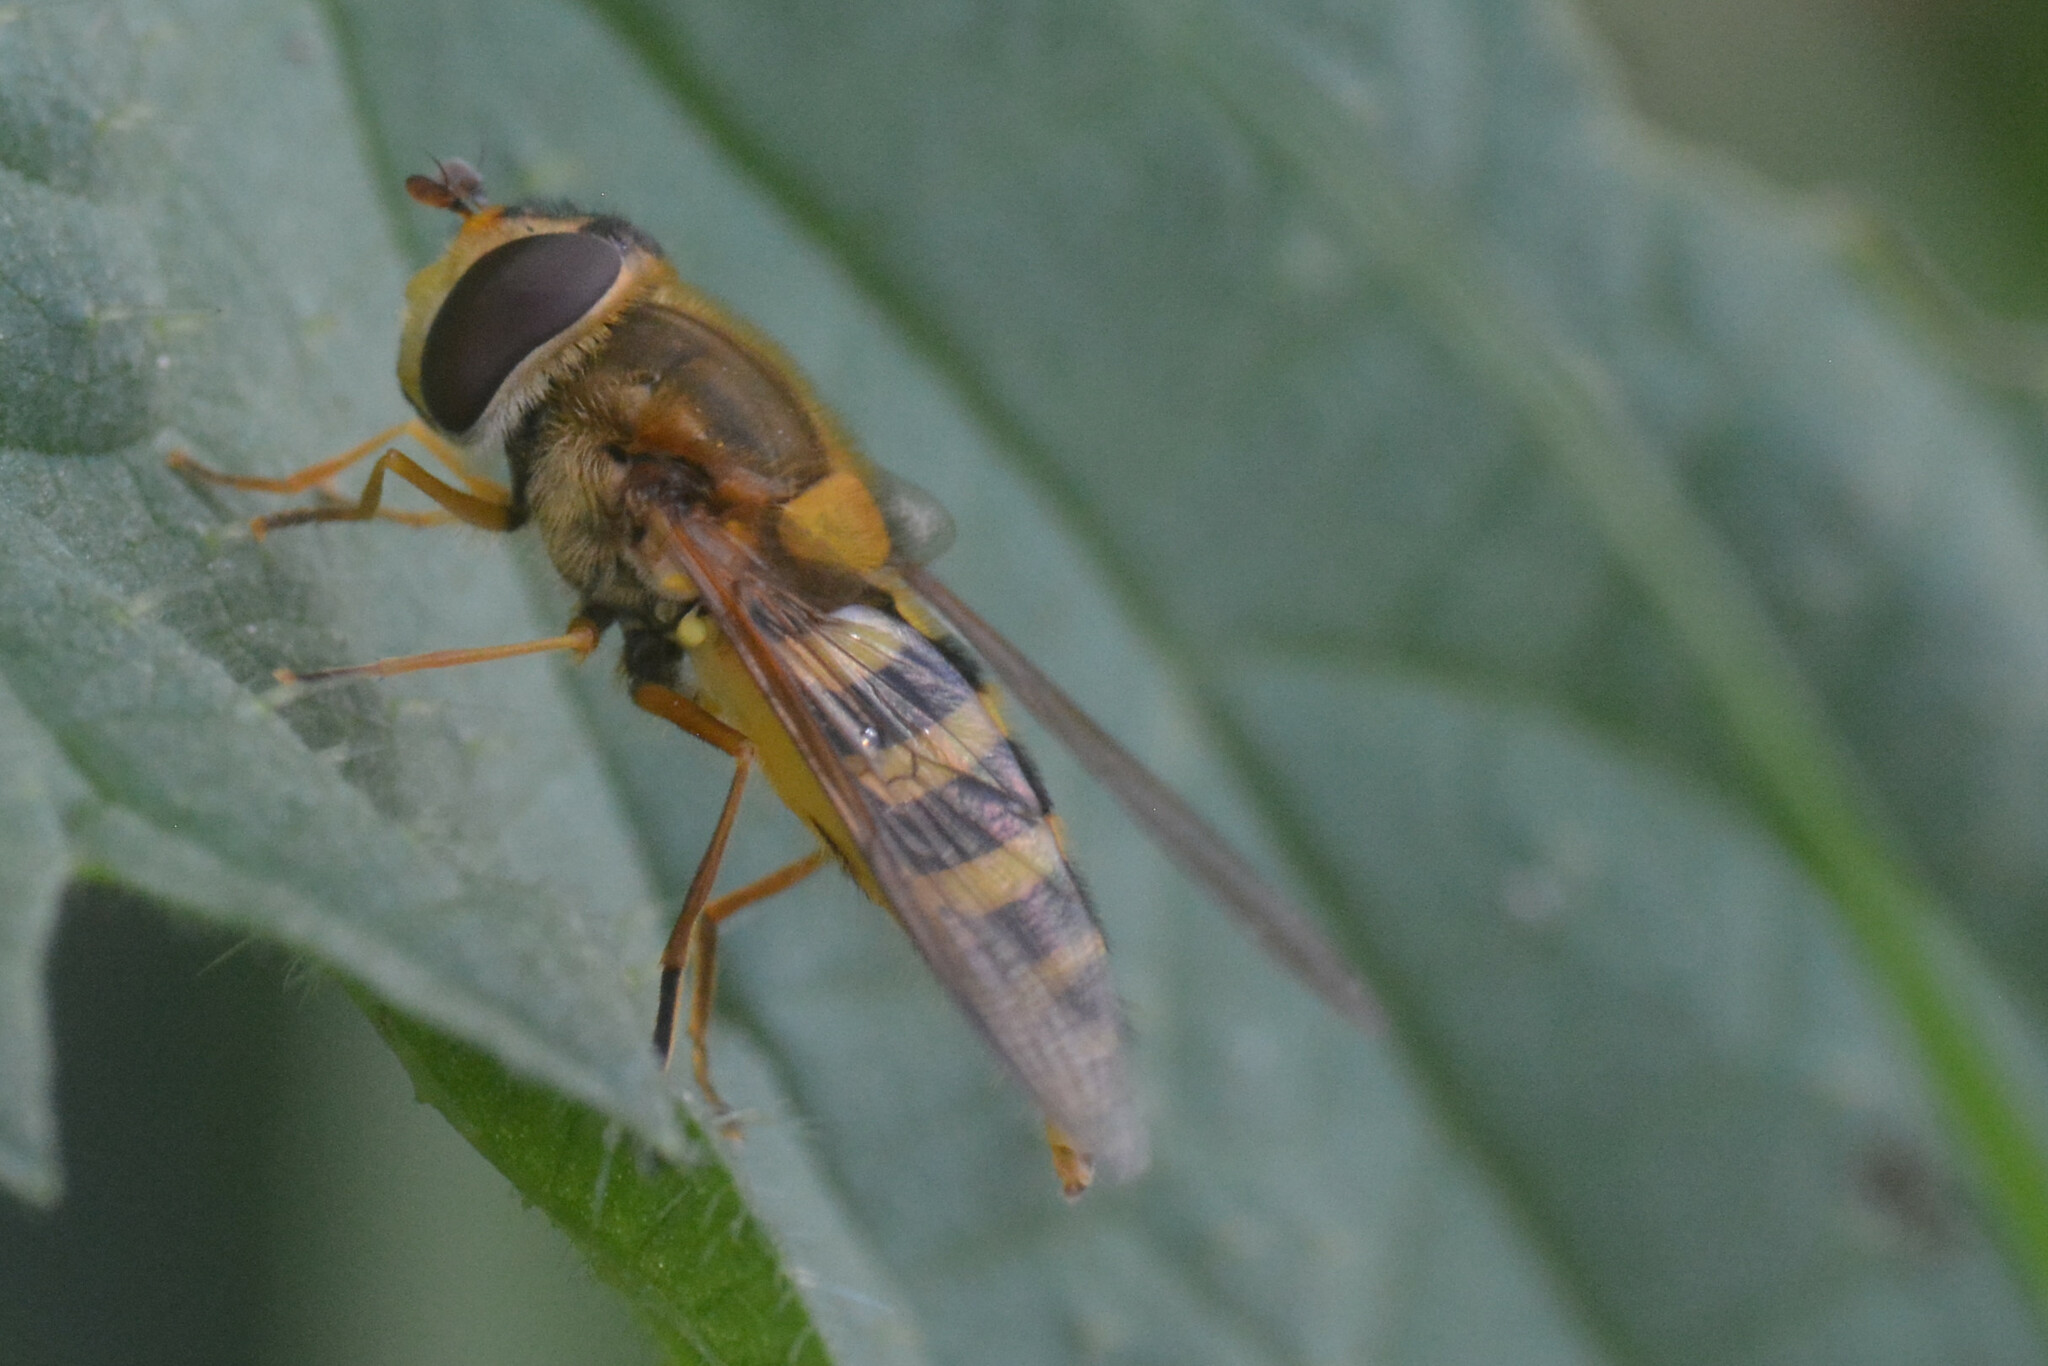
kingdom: Animalia
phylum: Arthropoda
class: Insecta
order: Diptera
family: Syrphidae
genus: Syrphus
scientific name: Syrphus ribesii
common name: Common flower fly
